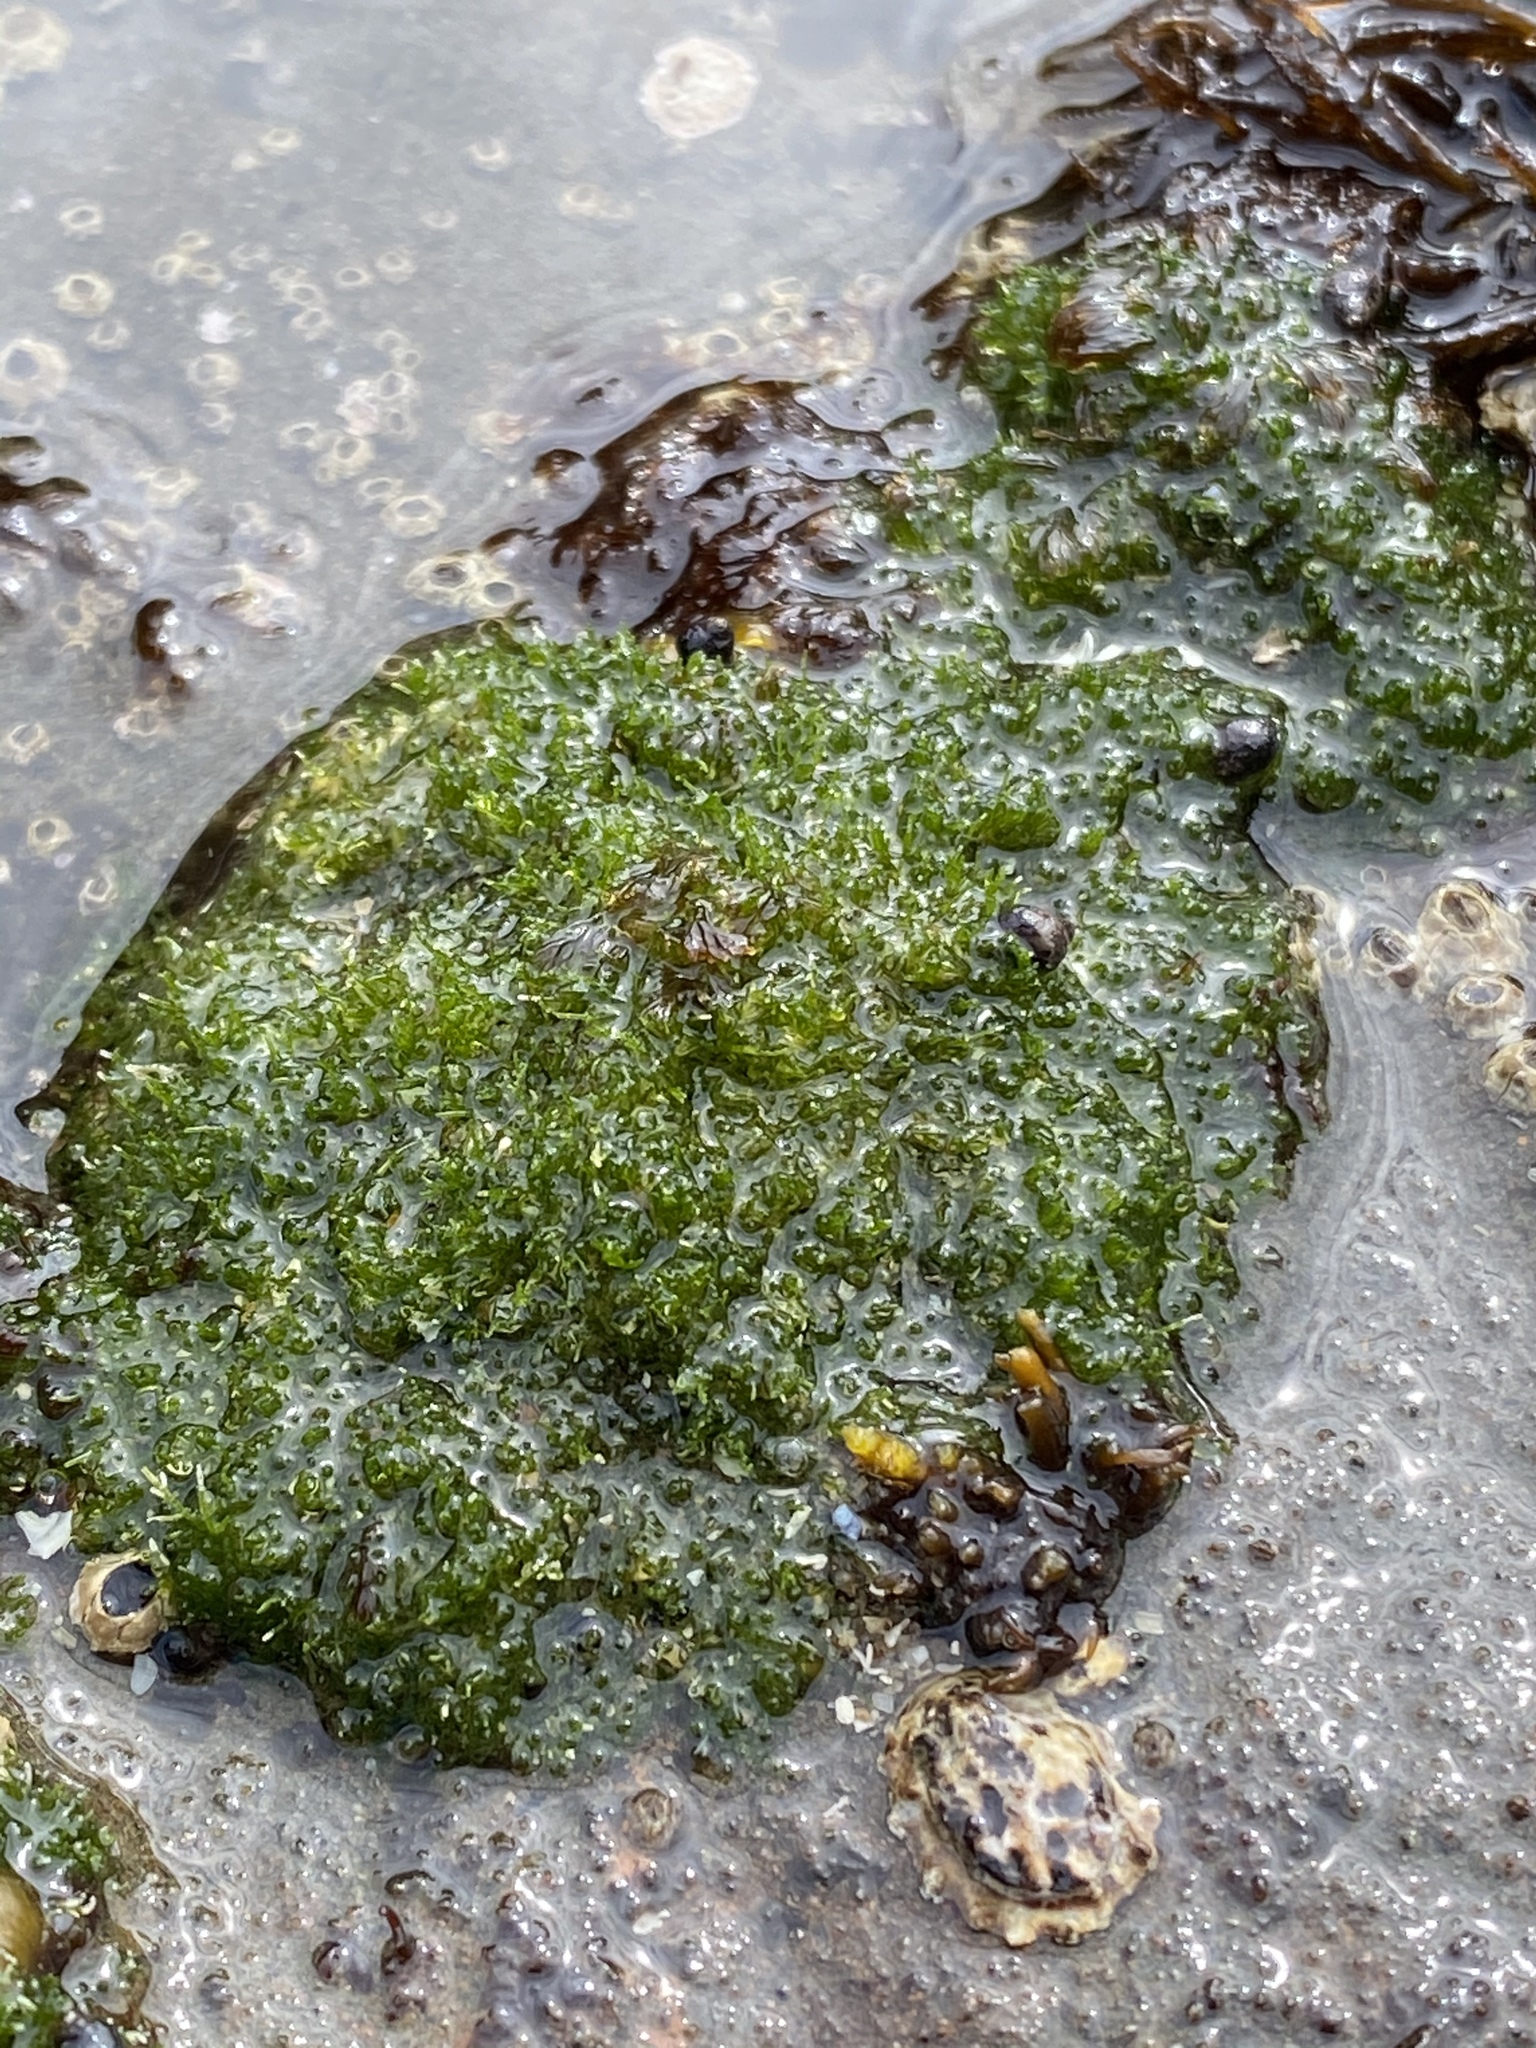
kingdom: Plantae
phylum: Chlorophyta
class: Ulvophyceae
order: Cladophorales
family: Cladophoraceae
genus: Cladophora
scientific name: Cladophora columbiana
